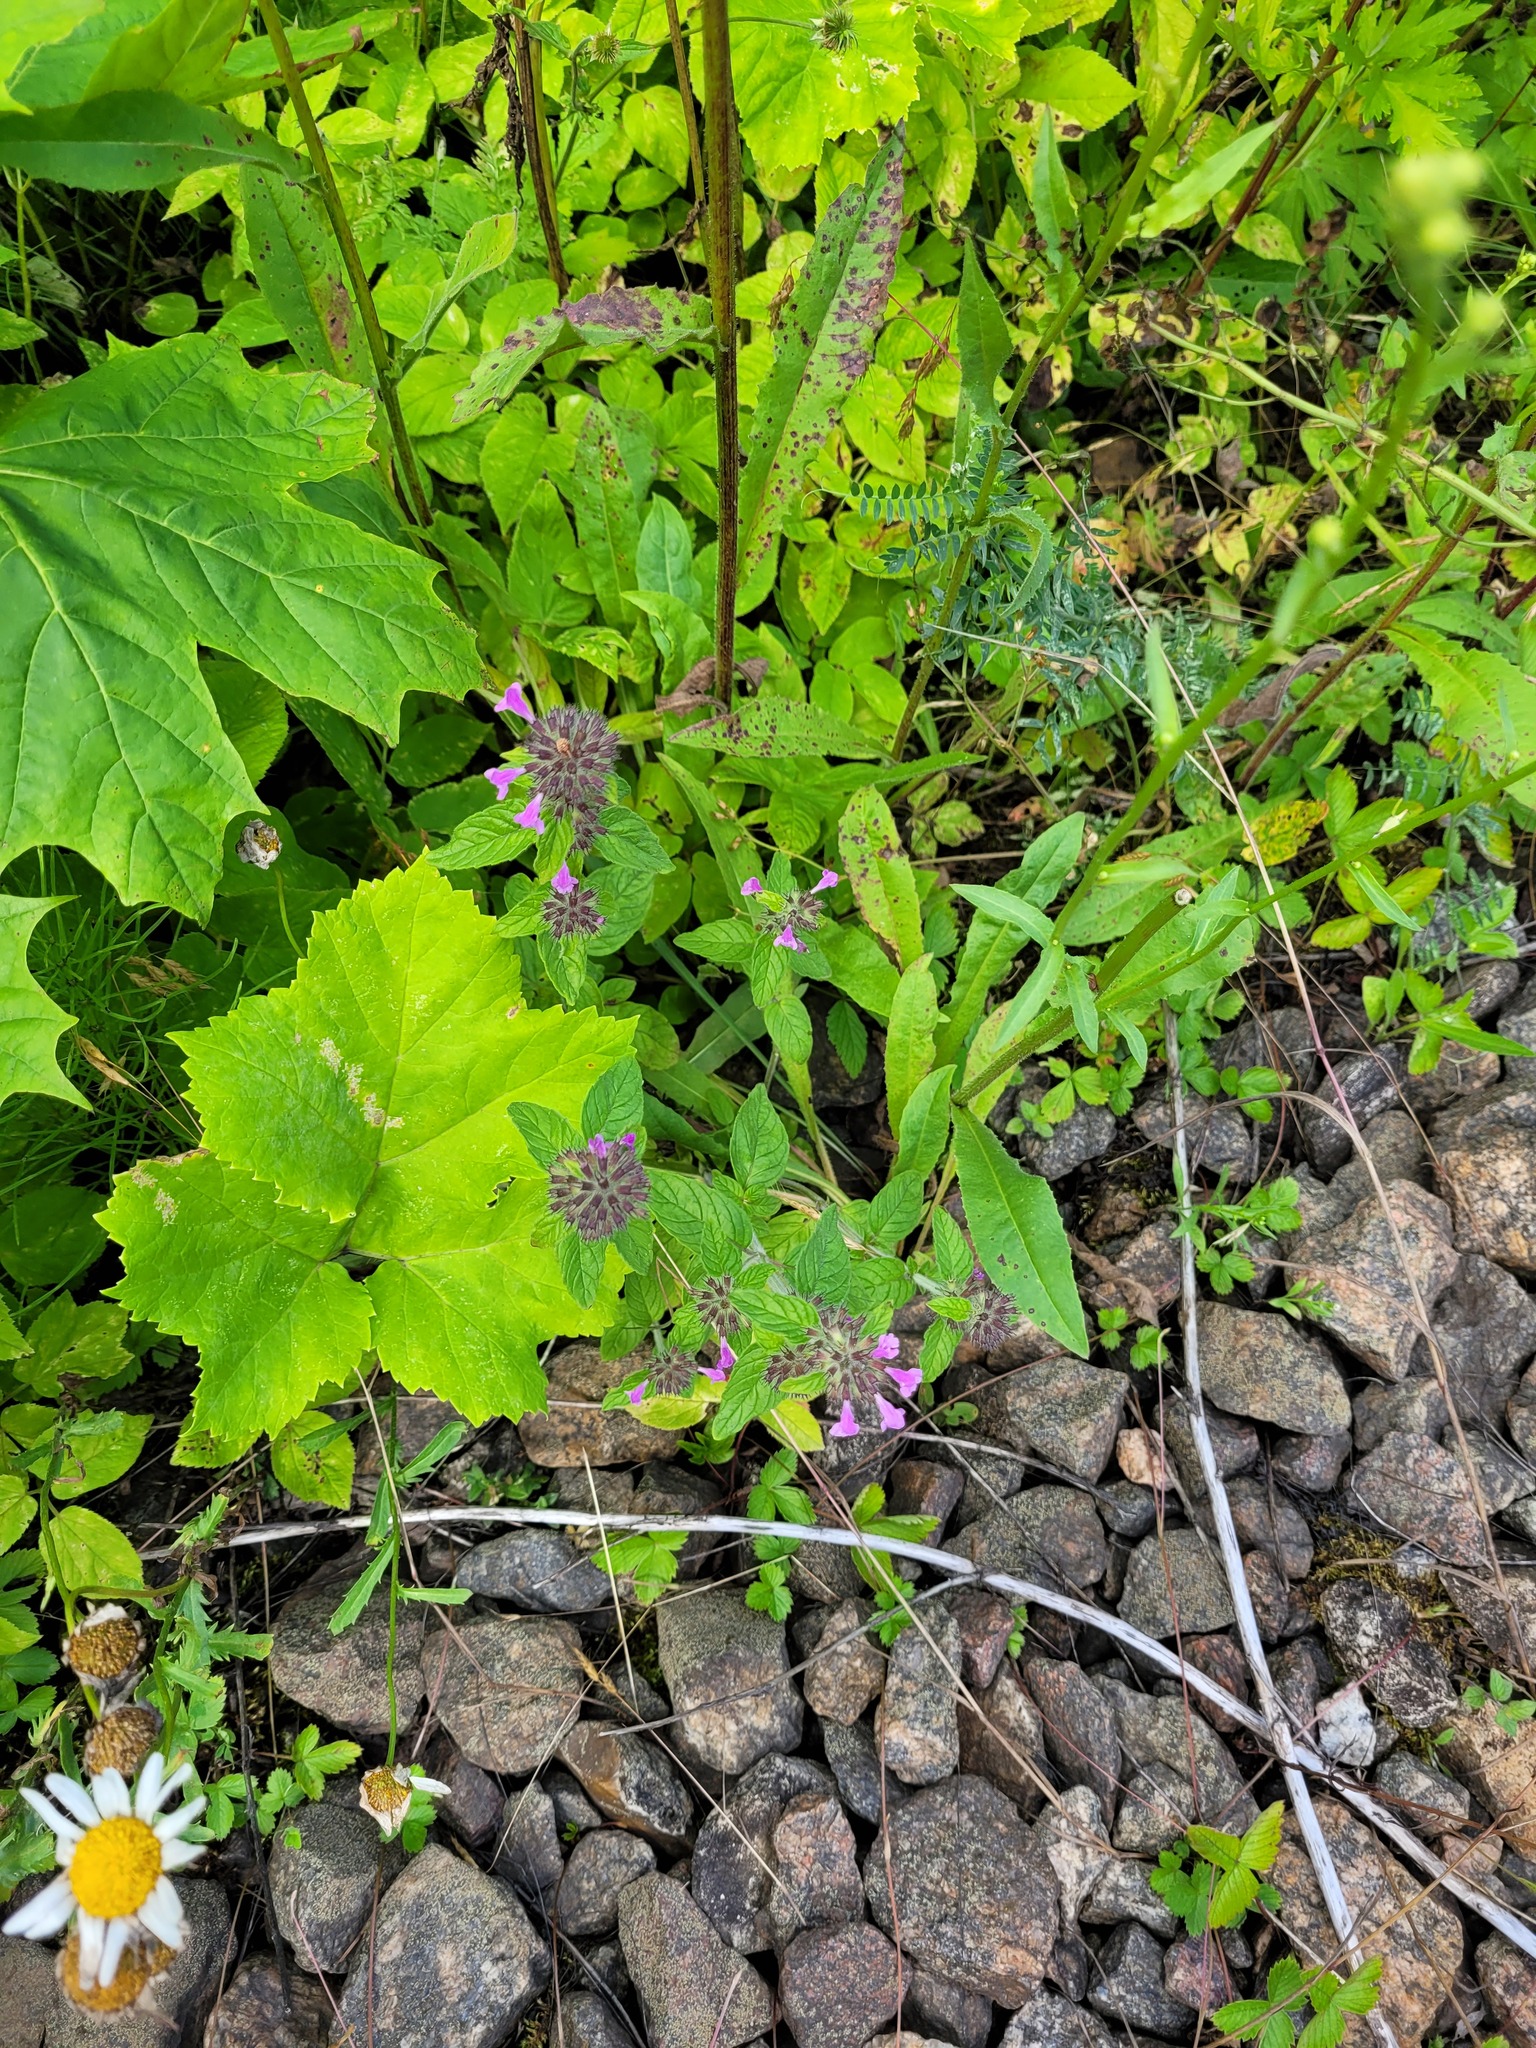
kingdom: Plantae
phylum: Tracheophyta
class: Magnoliopsida
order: Lamiales
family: Lamiaceae
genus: Clinopodium
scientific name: Clinopodium vulgare
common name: Wild basil
